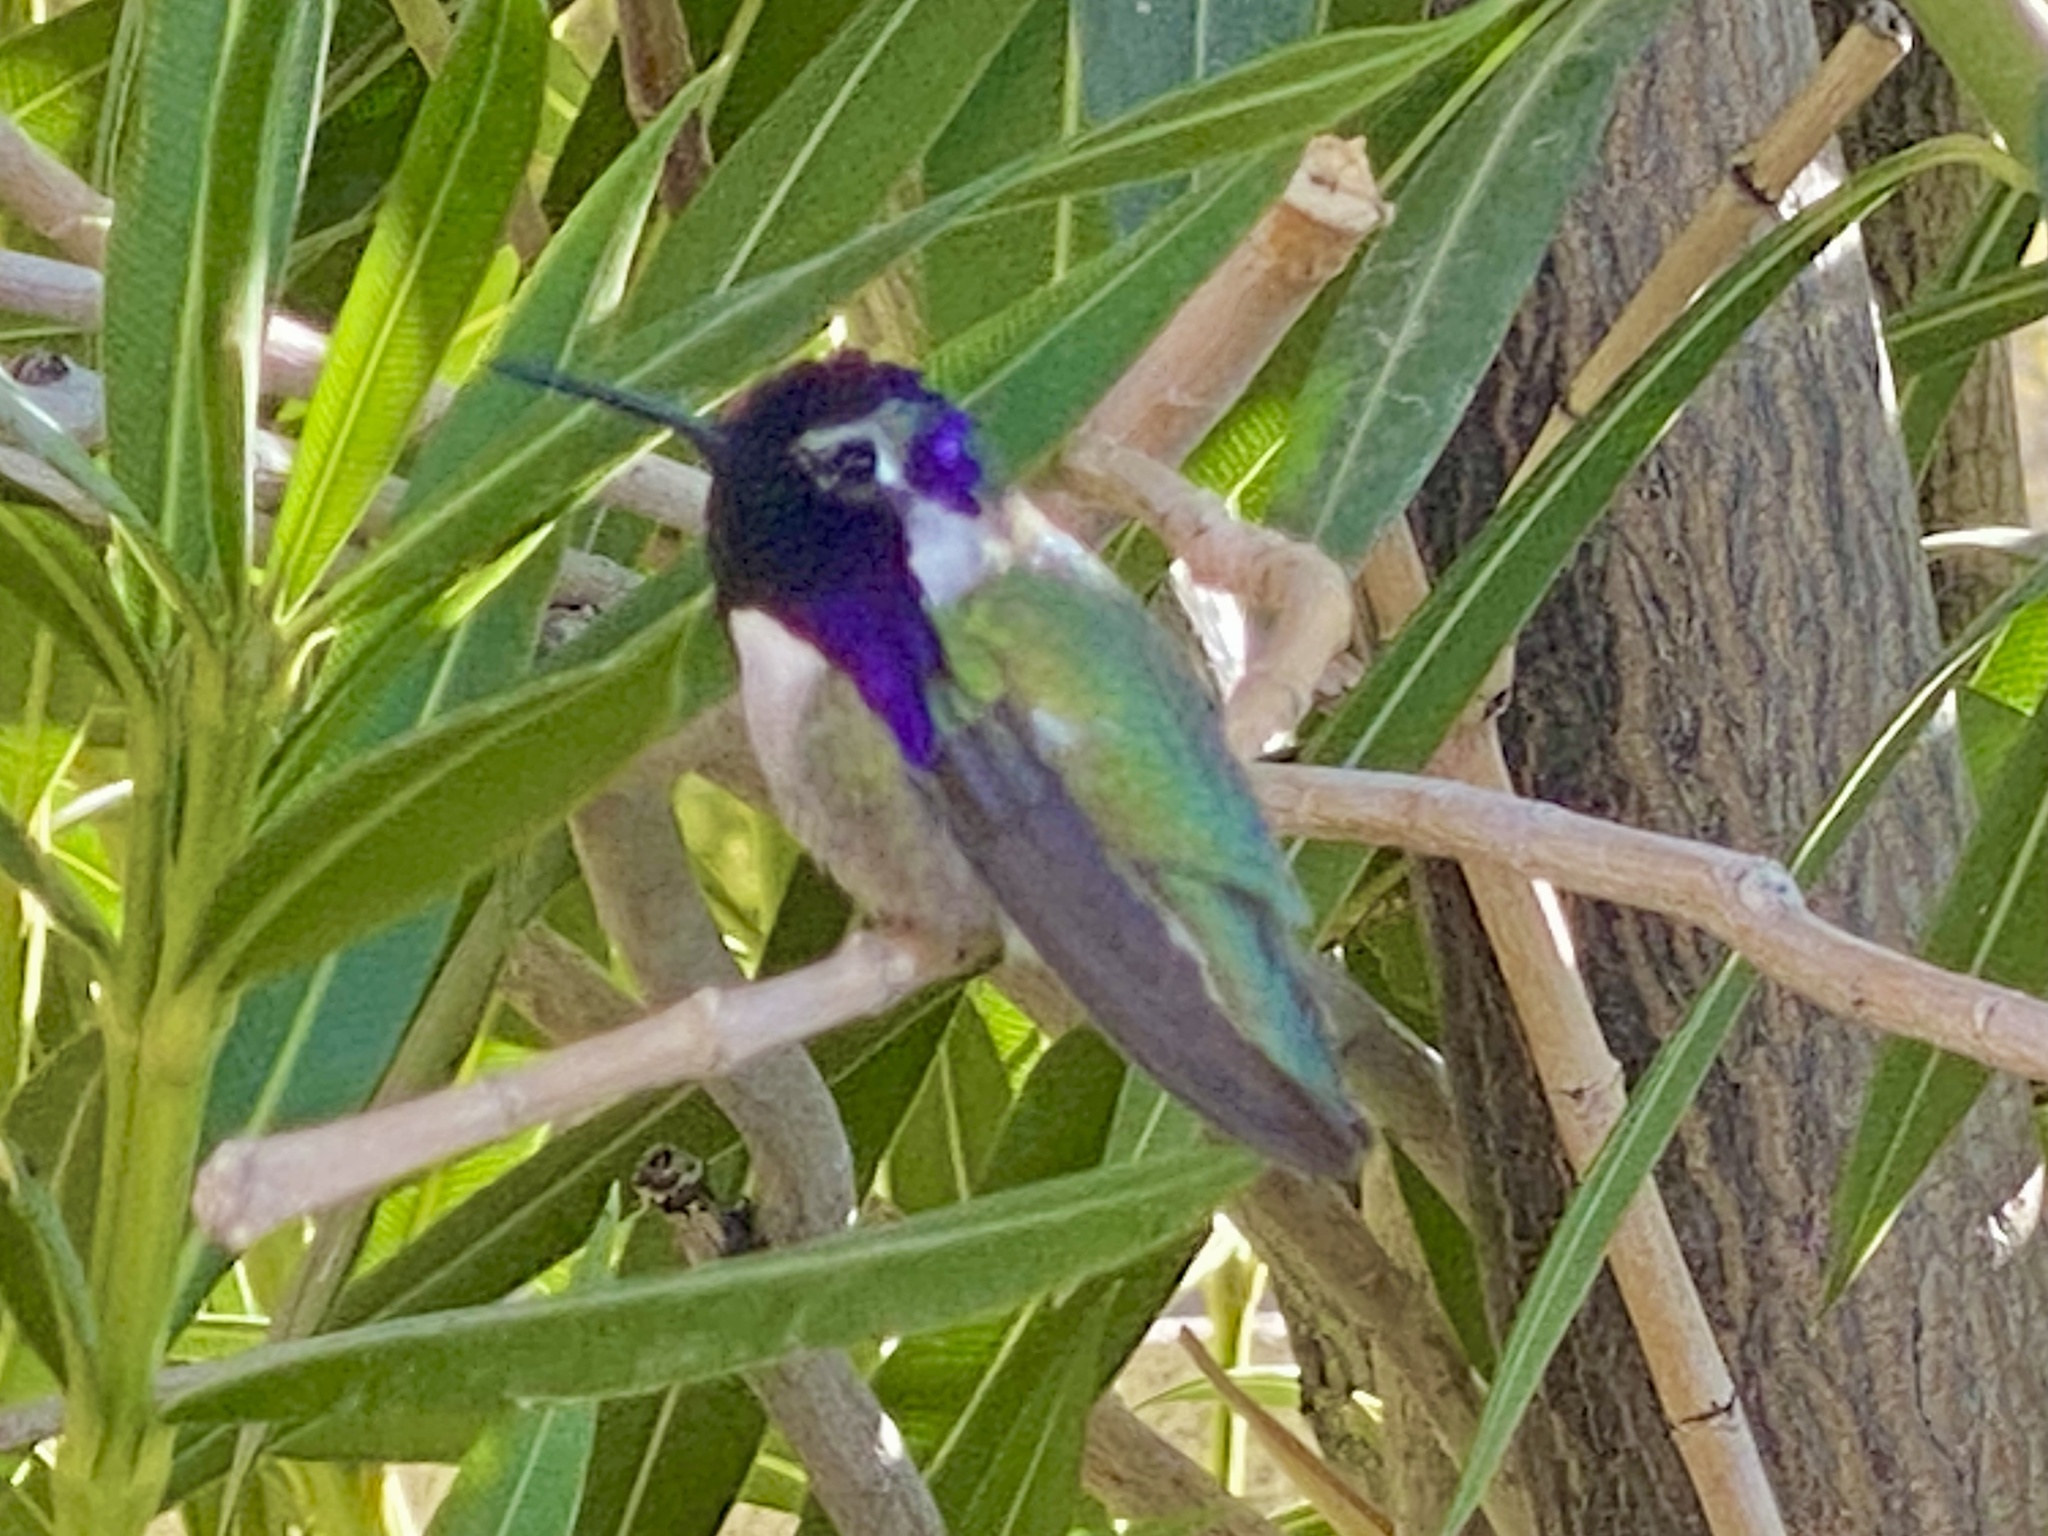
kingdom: Animalia
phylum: Chordata
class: Aves
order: Apodiformes
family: Trochilidae
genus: Calypte
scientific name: Calypte costae
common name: Costa's hummingbird
